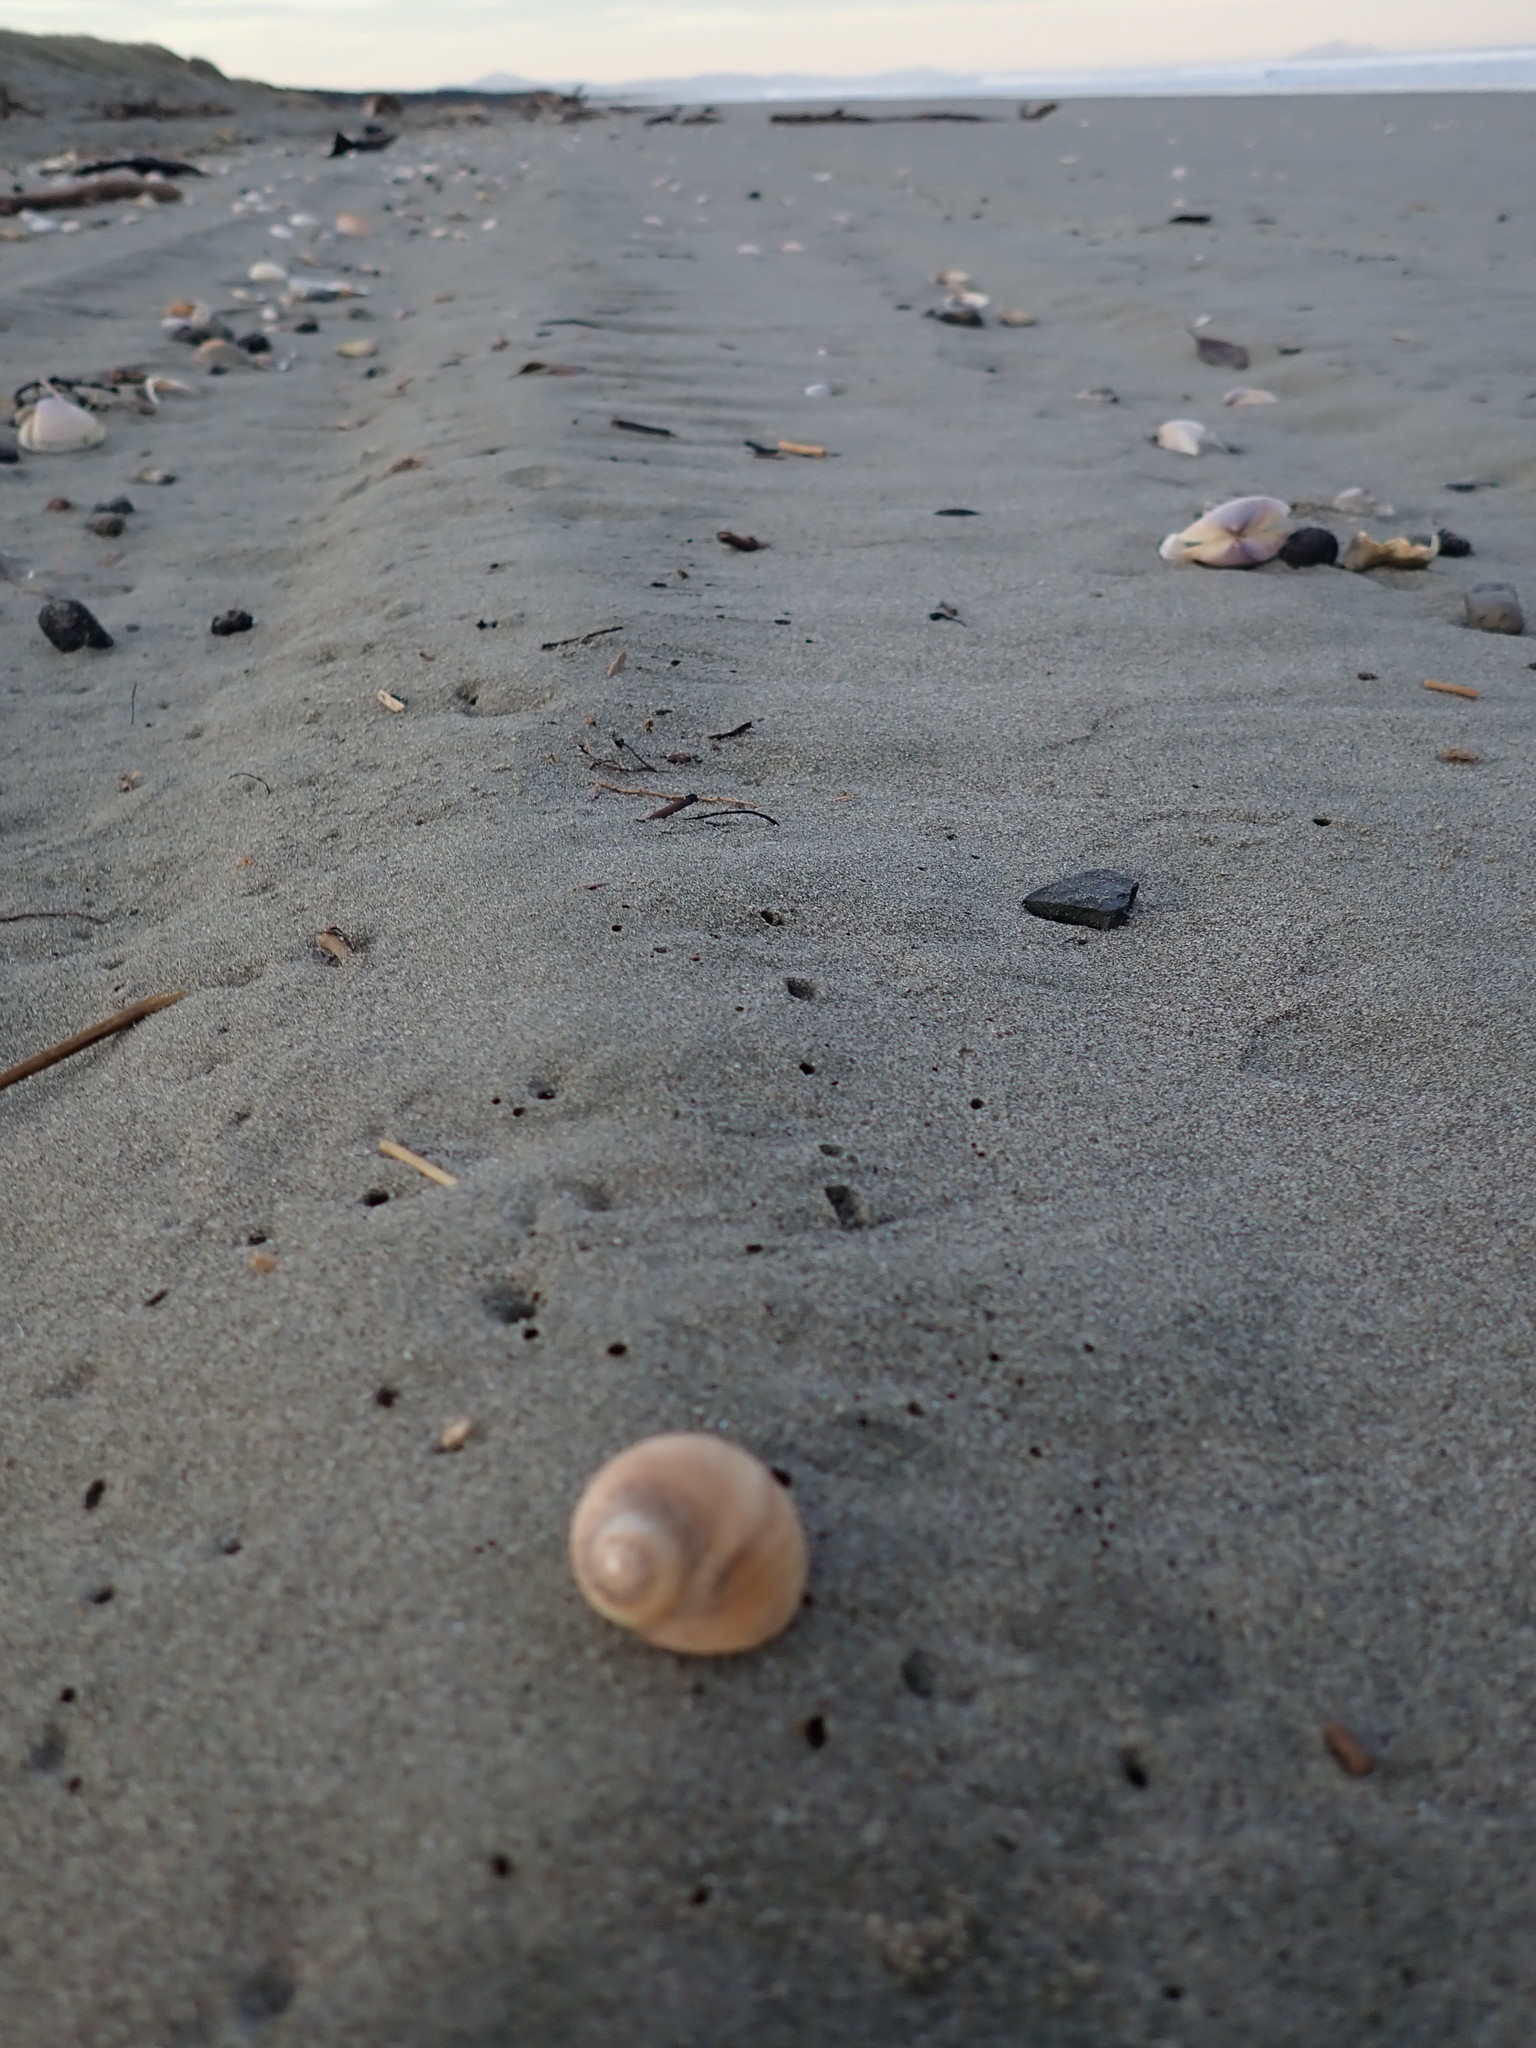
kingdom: Animalia
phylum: Mollusca
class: Gastropoda
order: Littorinimorpha
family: Naticidae
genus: Tanea
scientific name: Tanea zelandica
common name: New zealand moonsnail
